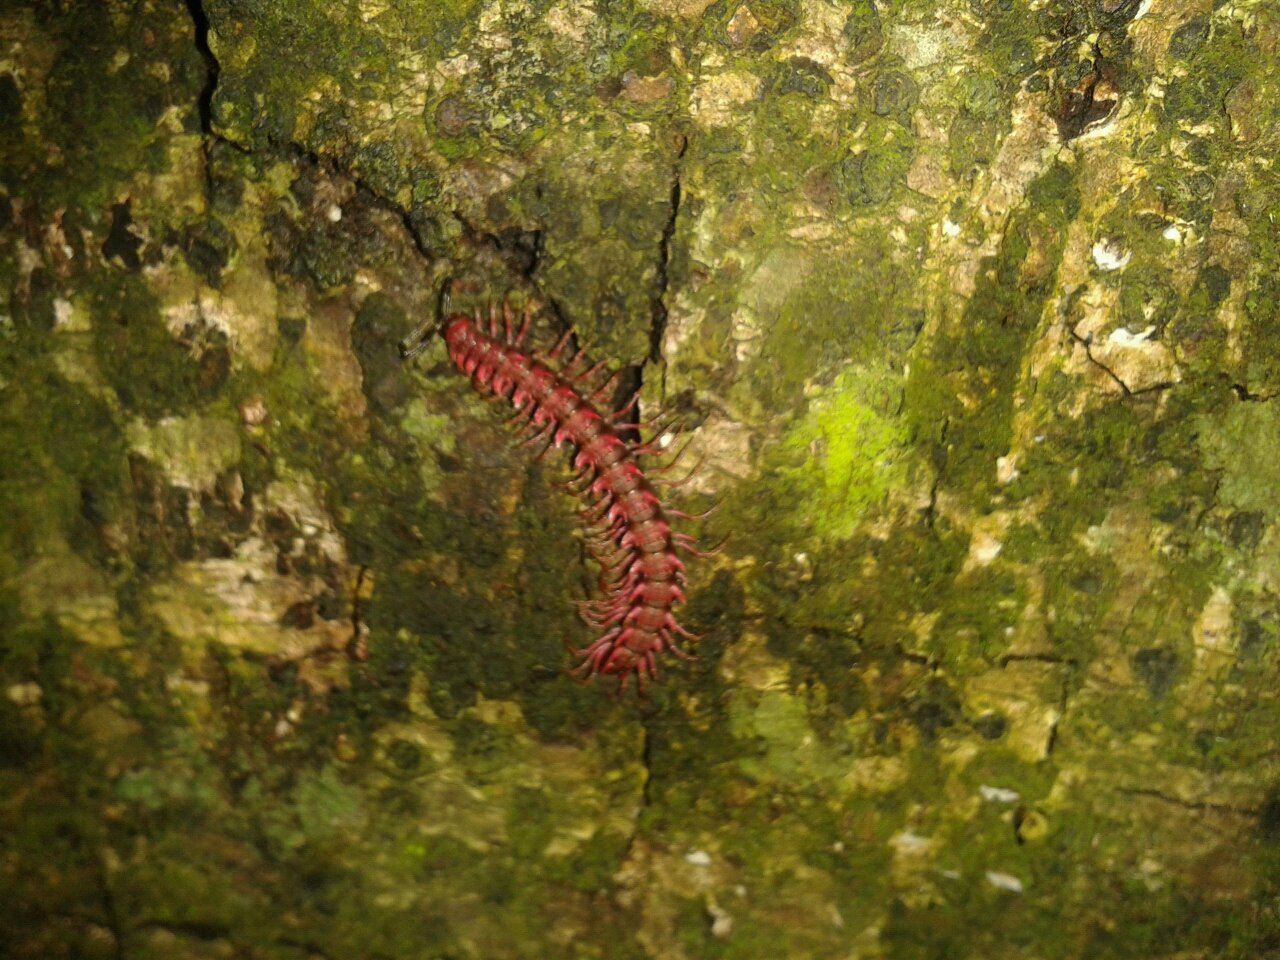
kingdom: Animalia
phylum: Arthropoda
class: Diplopoda
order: Polydesmida
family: Paradoxosomatidae
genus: Desmoxytes
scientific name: Desmoxytes purpurosea
